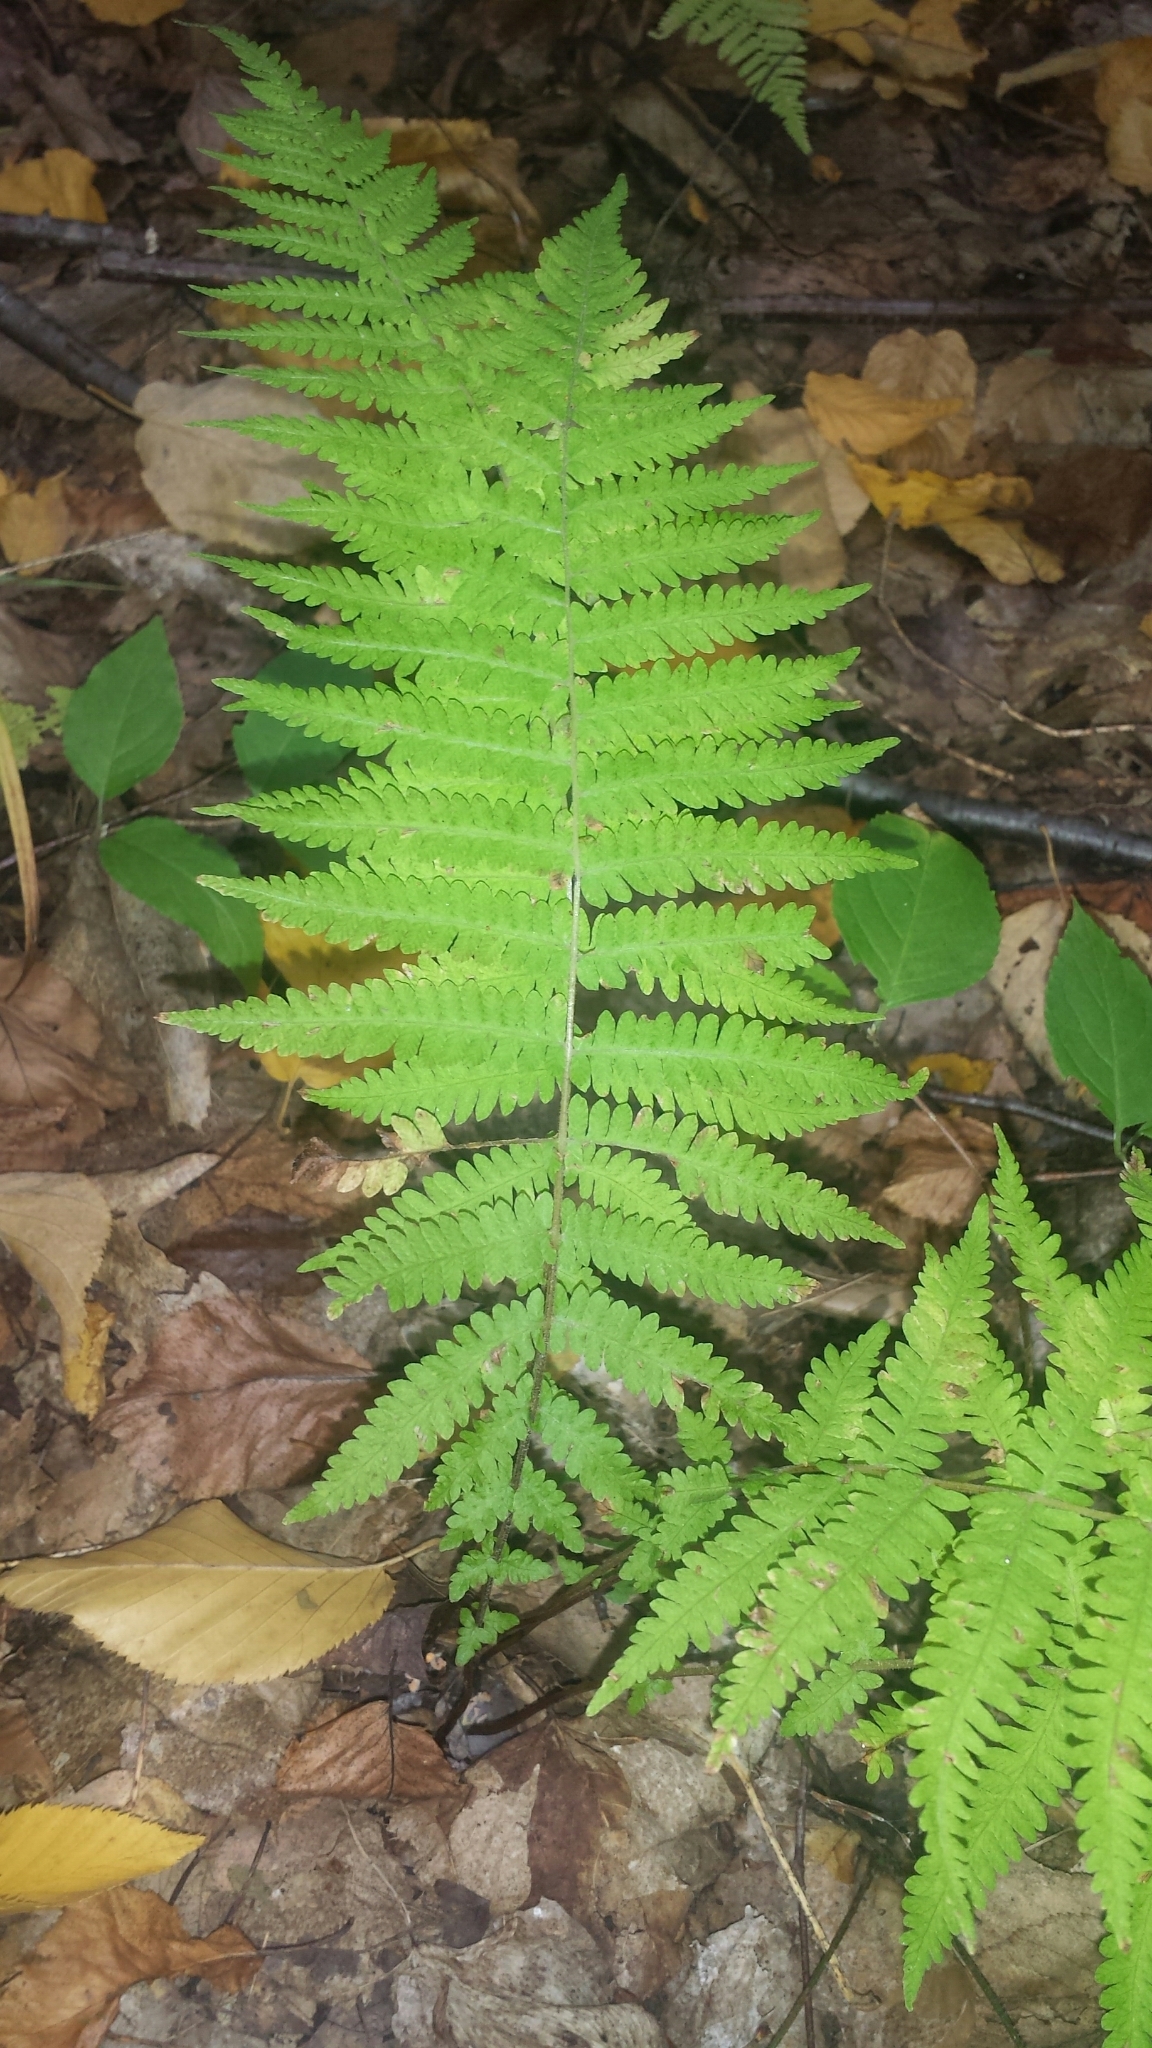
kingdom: Plantae
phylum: Tracheophyta
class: Polypodiopsida
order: Polypodiales
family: Thelypteridaceae
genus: Amauropelta
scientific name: Amauropelta noveboracensis
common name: New york fern
